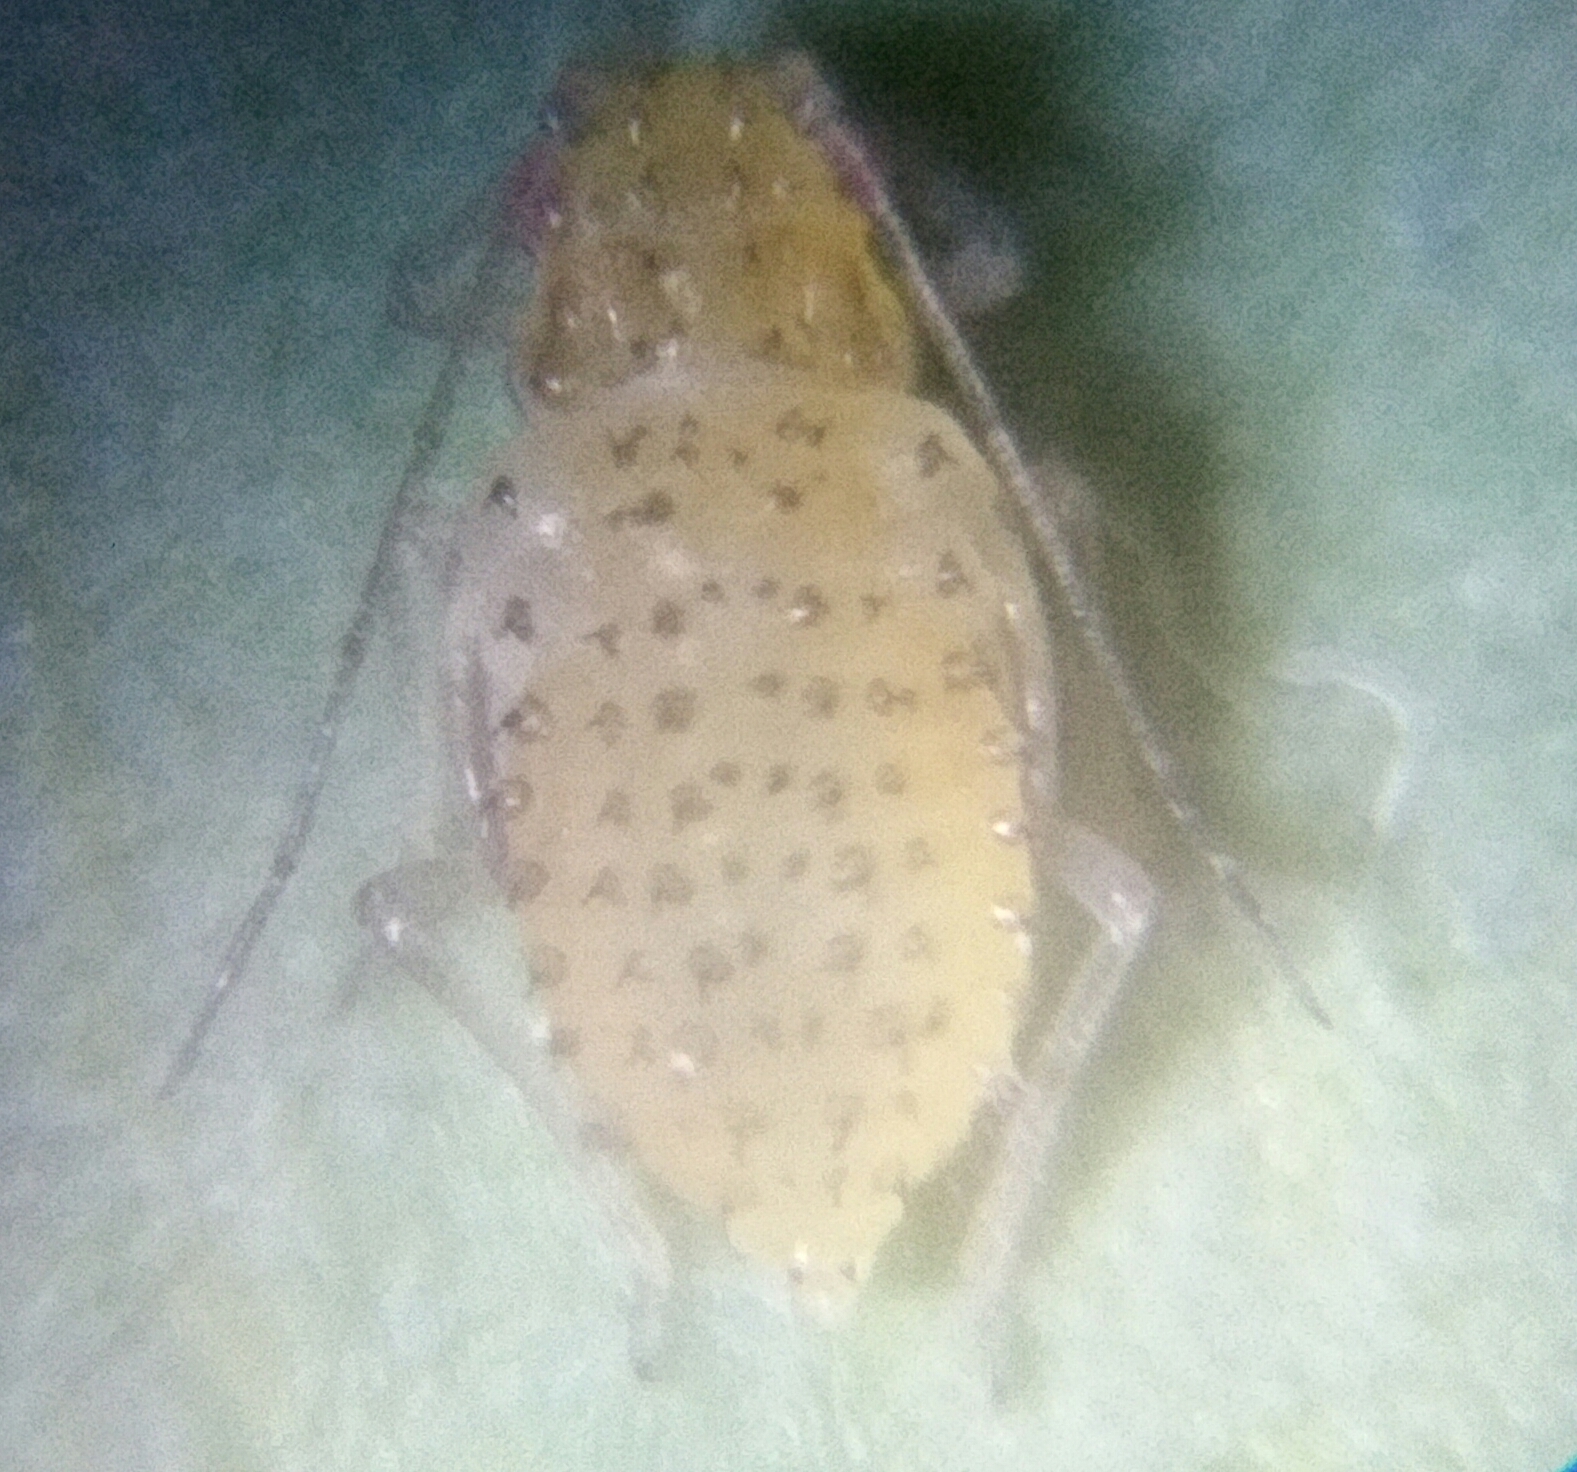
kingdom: Animalia
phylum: Arthropoda
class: Insecta
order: Hemiptera
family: Aphididae
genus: Therioaphis
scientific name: Therioaphis trifolii
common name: Spotted alfalfa aphid
